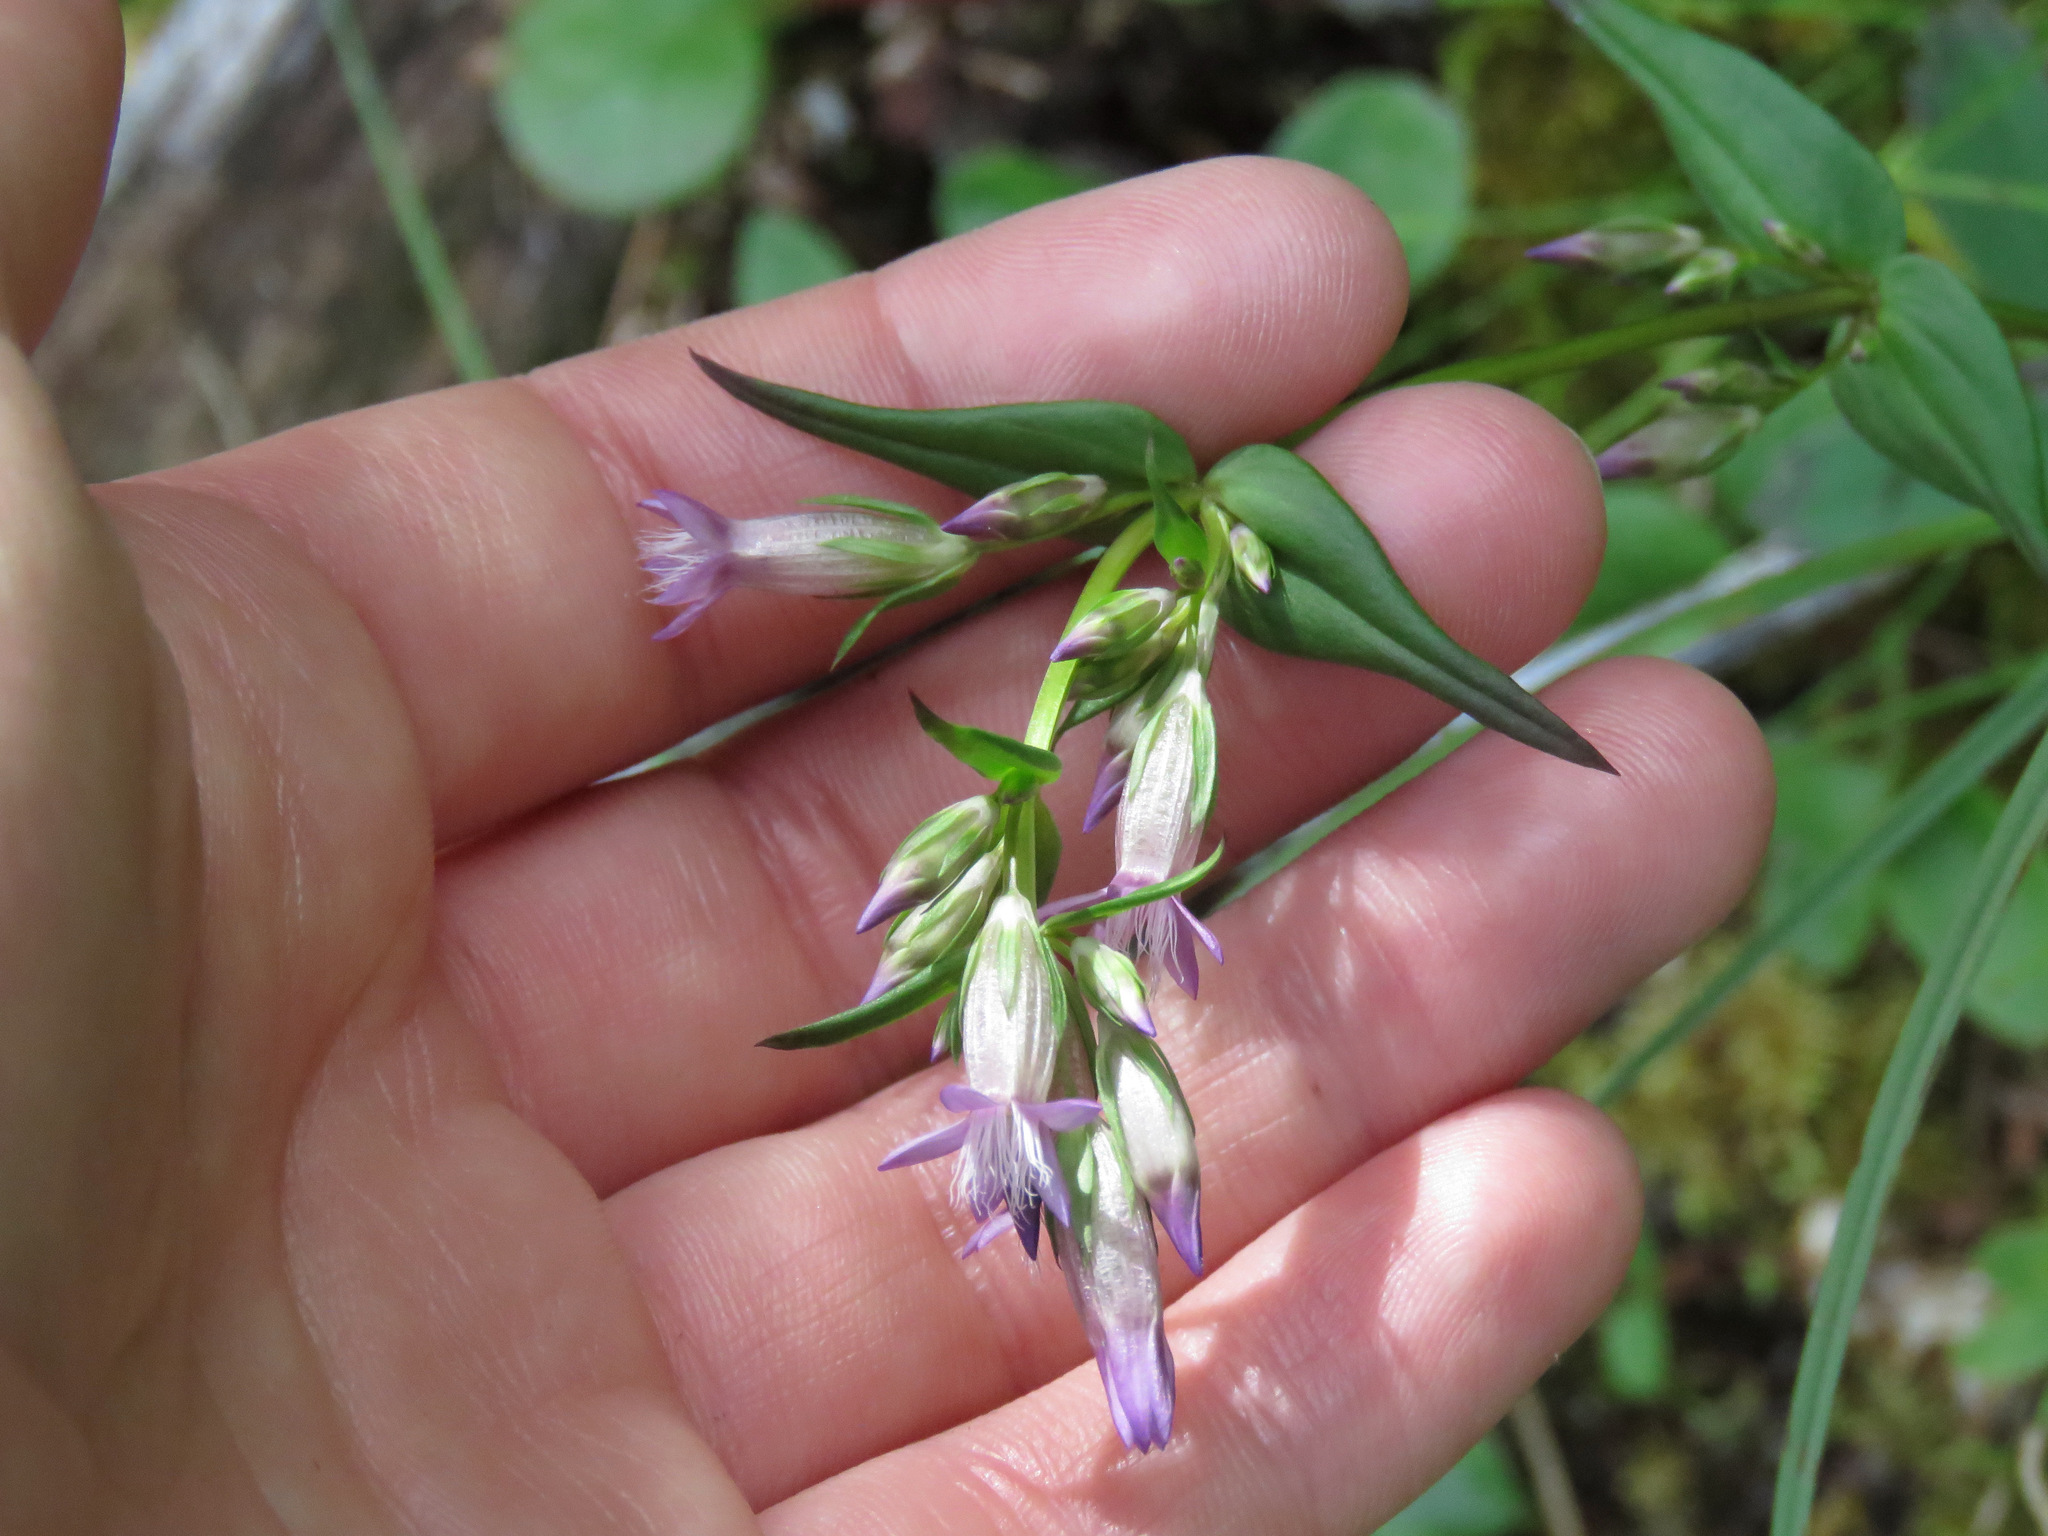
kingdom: Plantae
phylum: Tracheophyta
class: Magnoliopsida
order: Gentianales
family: Gentianaceae
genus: Gentianella
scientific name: Gentianella amarella
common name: Autumn gentian
